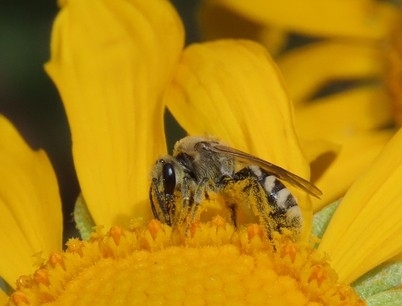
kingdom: Animalia
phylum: Arthropoda
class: Insecta
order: Hymenoptera
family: Halictidae
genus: Lasioglossum
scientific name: Lasioglossum sisymbrii
